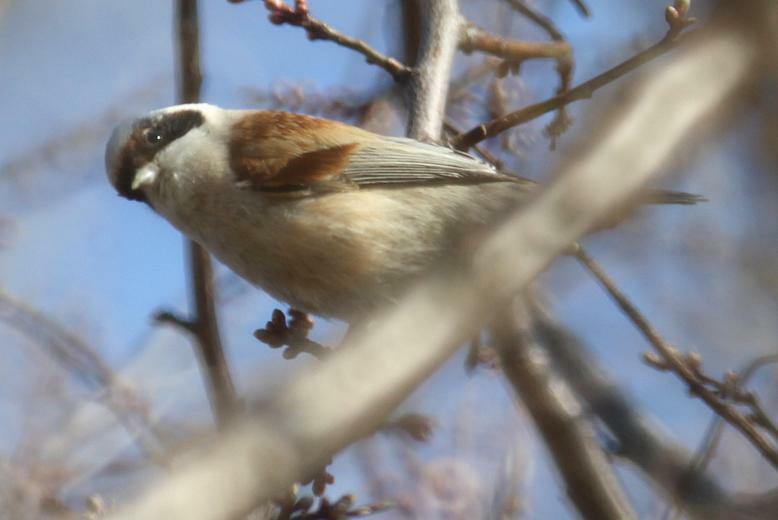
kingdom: Animalia
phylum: Chordata
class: Aves
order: Passeriformes
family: Remizidae
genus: Remiz
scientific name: Remiz pendulinus
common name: Eurasian penduline tit
